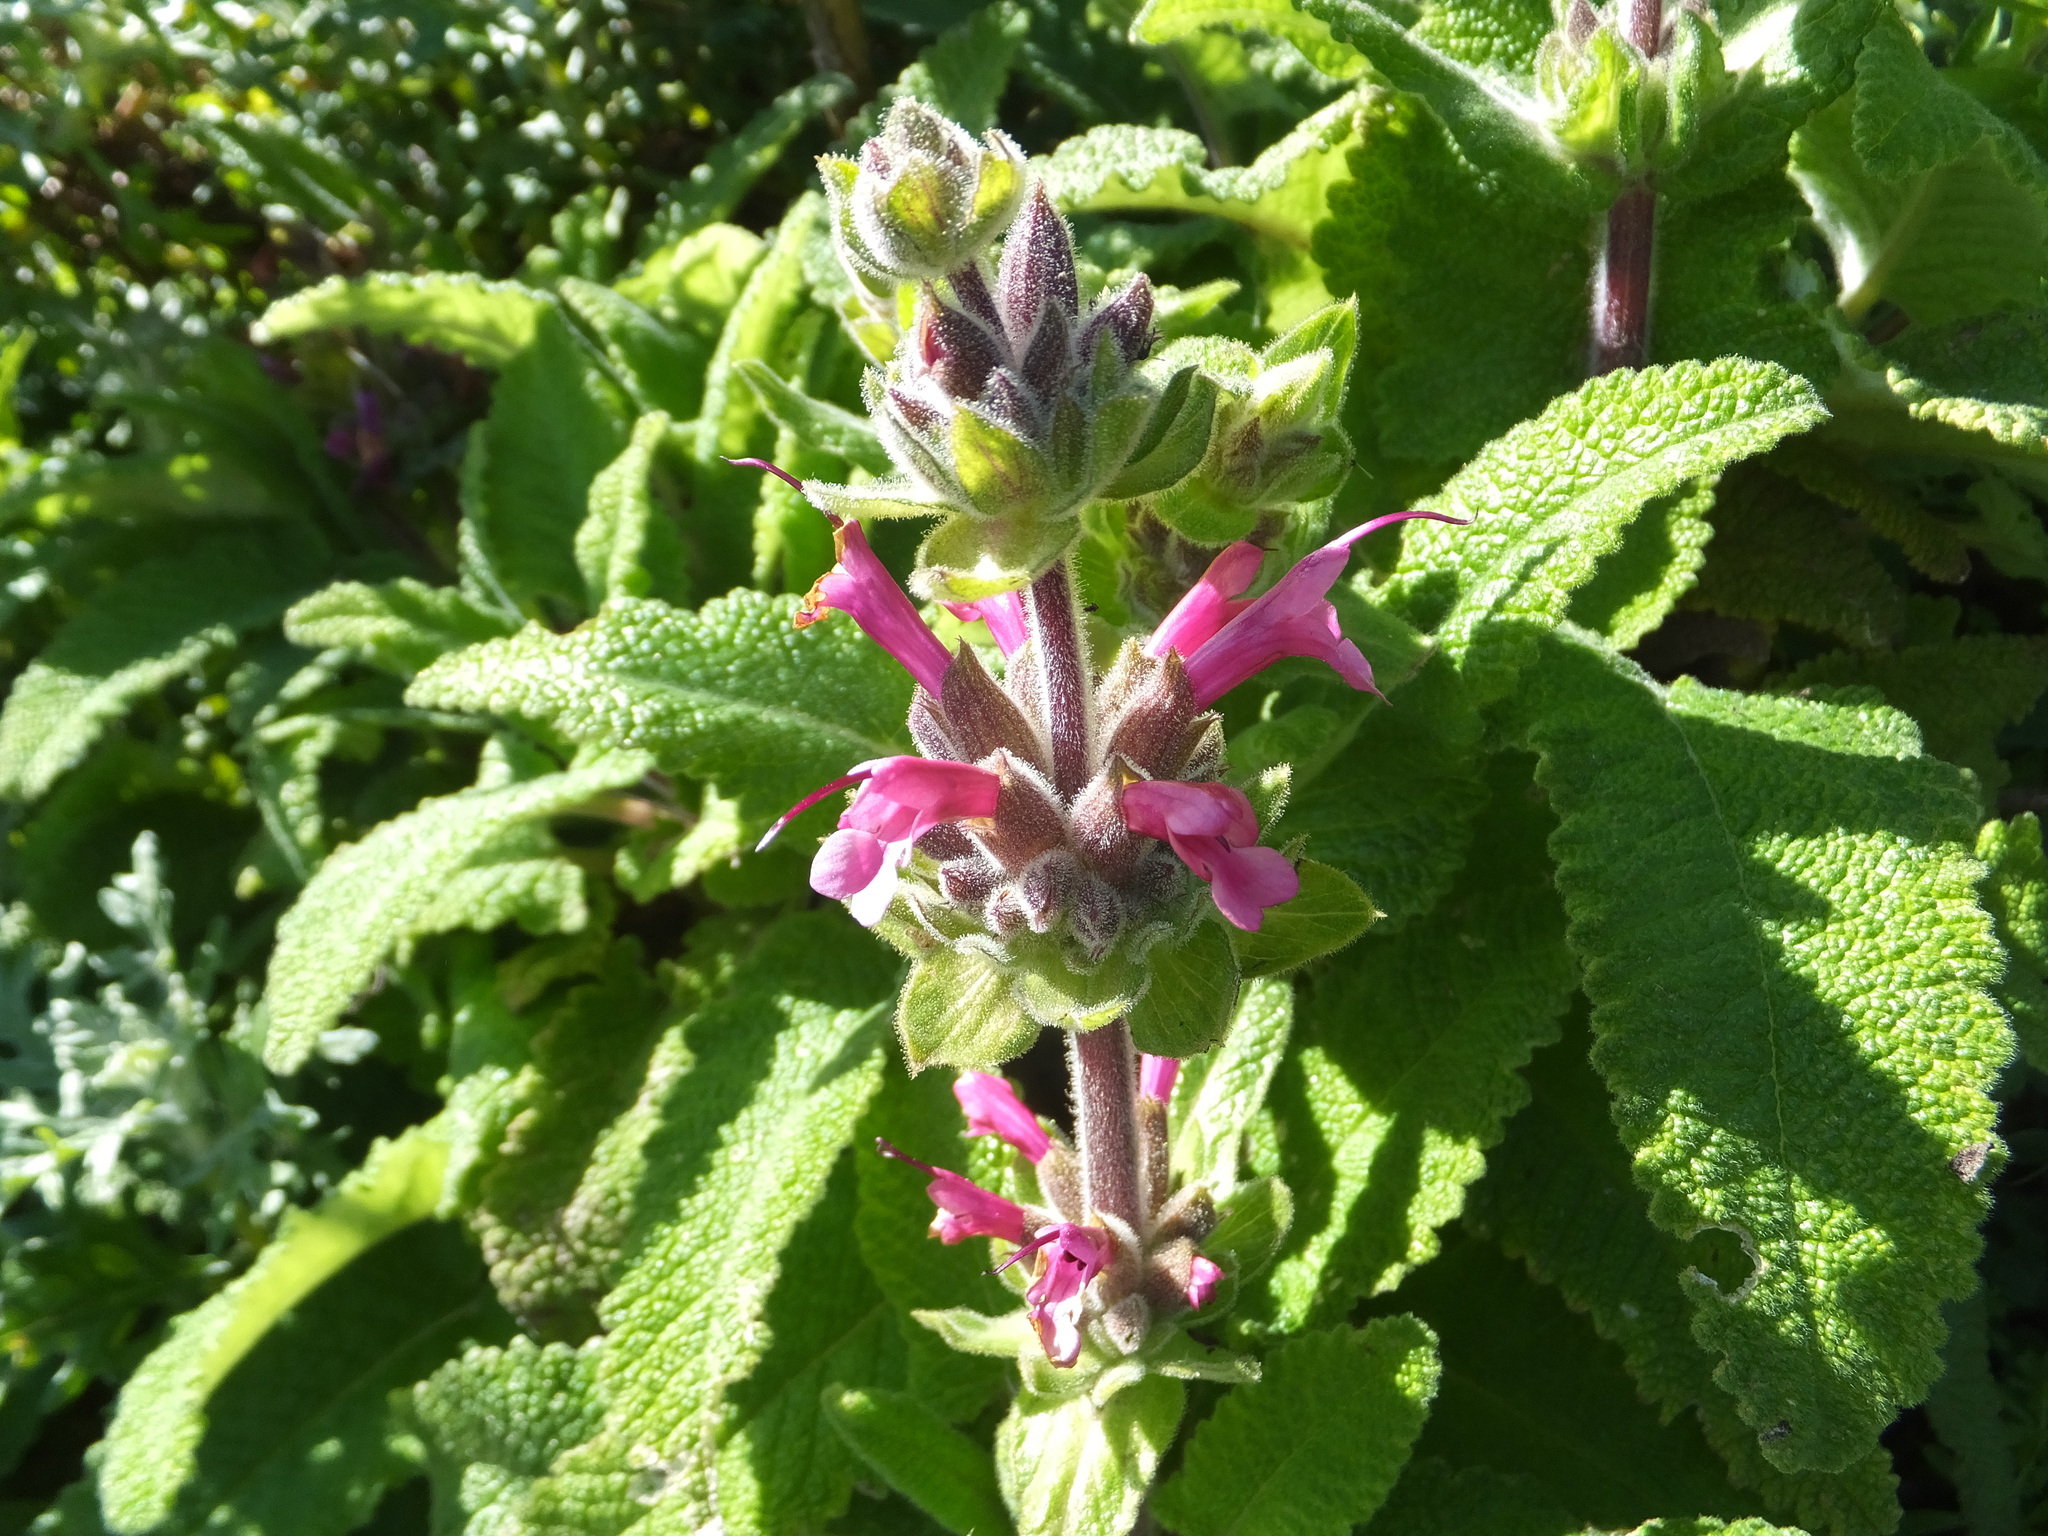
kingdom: Plantae
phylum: Tracheophyta
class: Magnoliopsida
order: Lamiales
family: Lamiaceae
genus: Salvia
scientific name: Salvia spathacea
